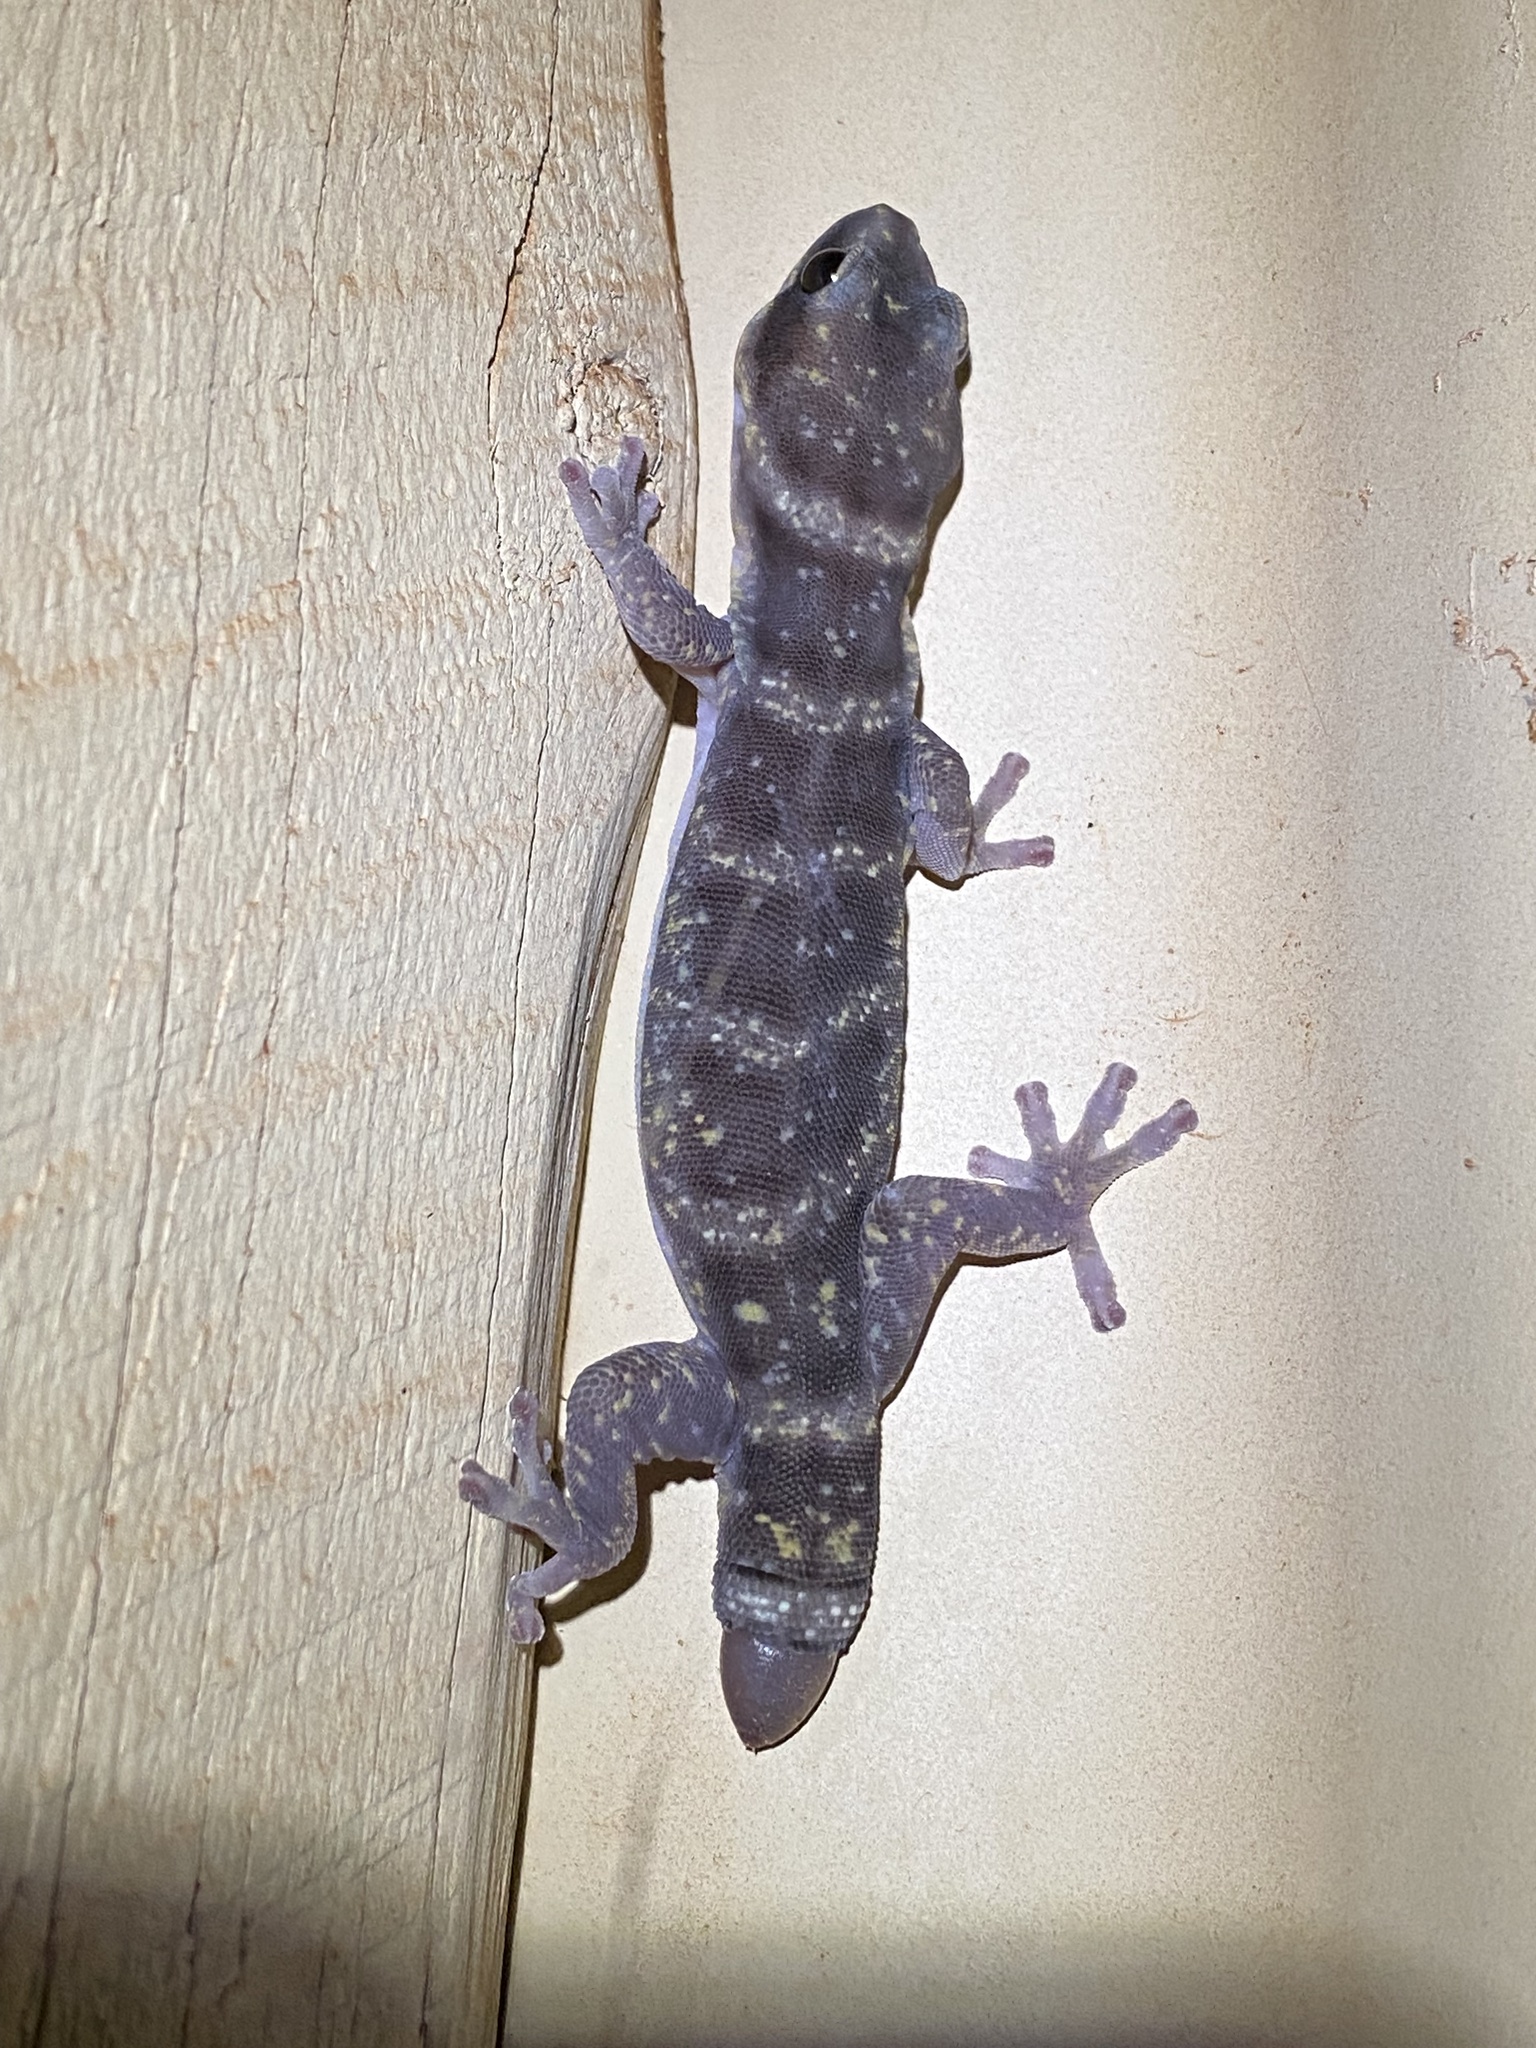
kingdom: Animalia
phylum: Chordata
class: Squamata
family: Diplodactylidae
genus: Oedura
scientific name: Oedura cincta
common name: Inland marbled velvet gecko
